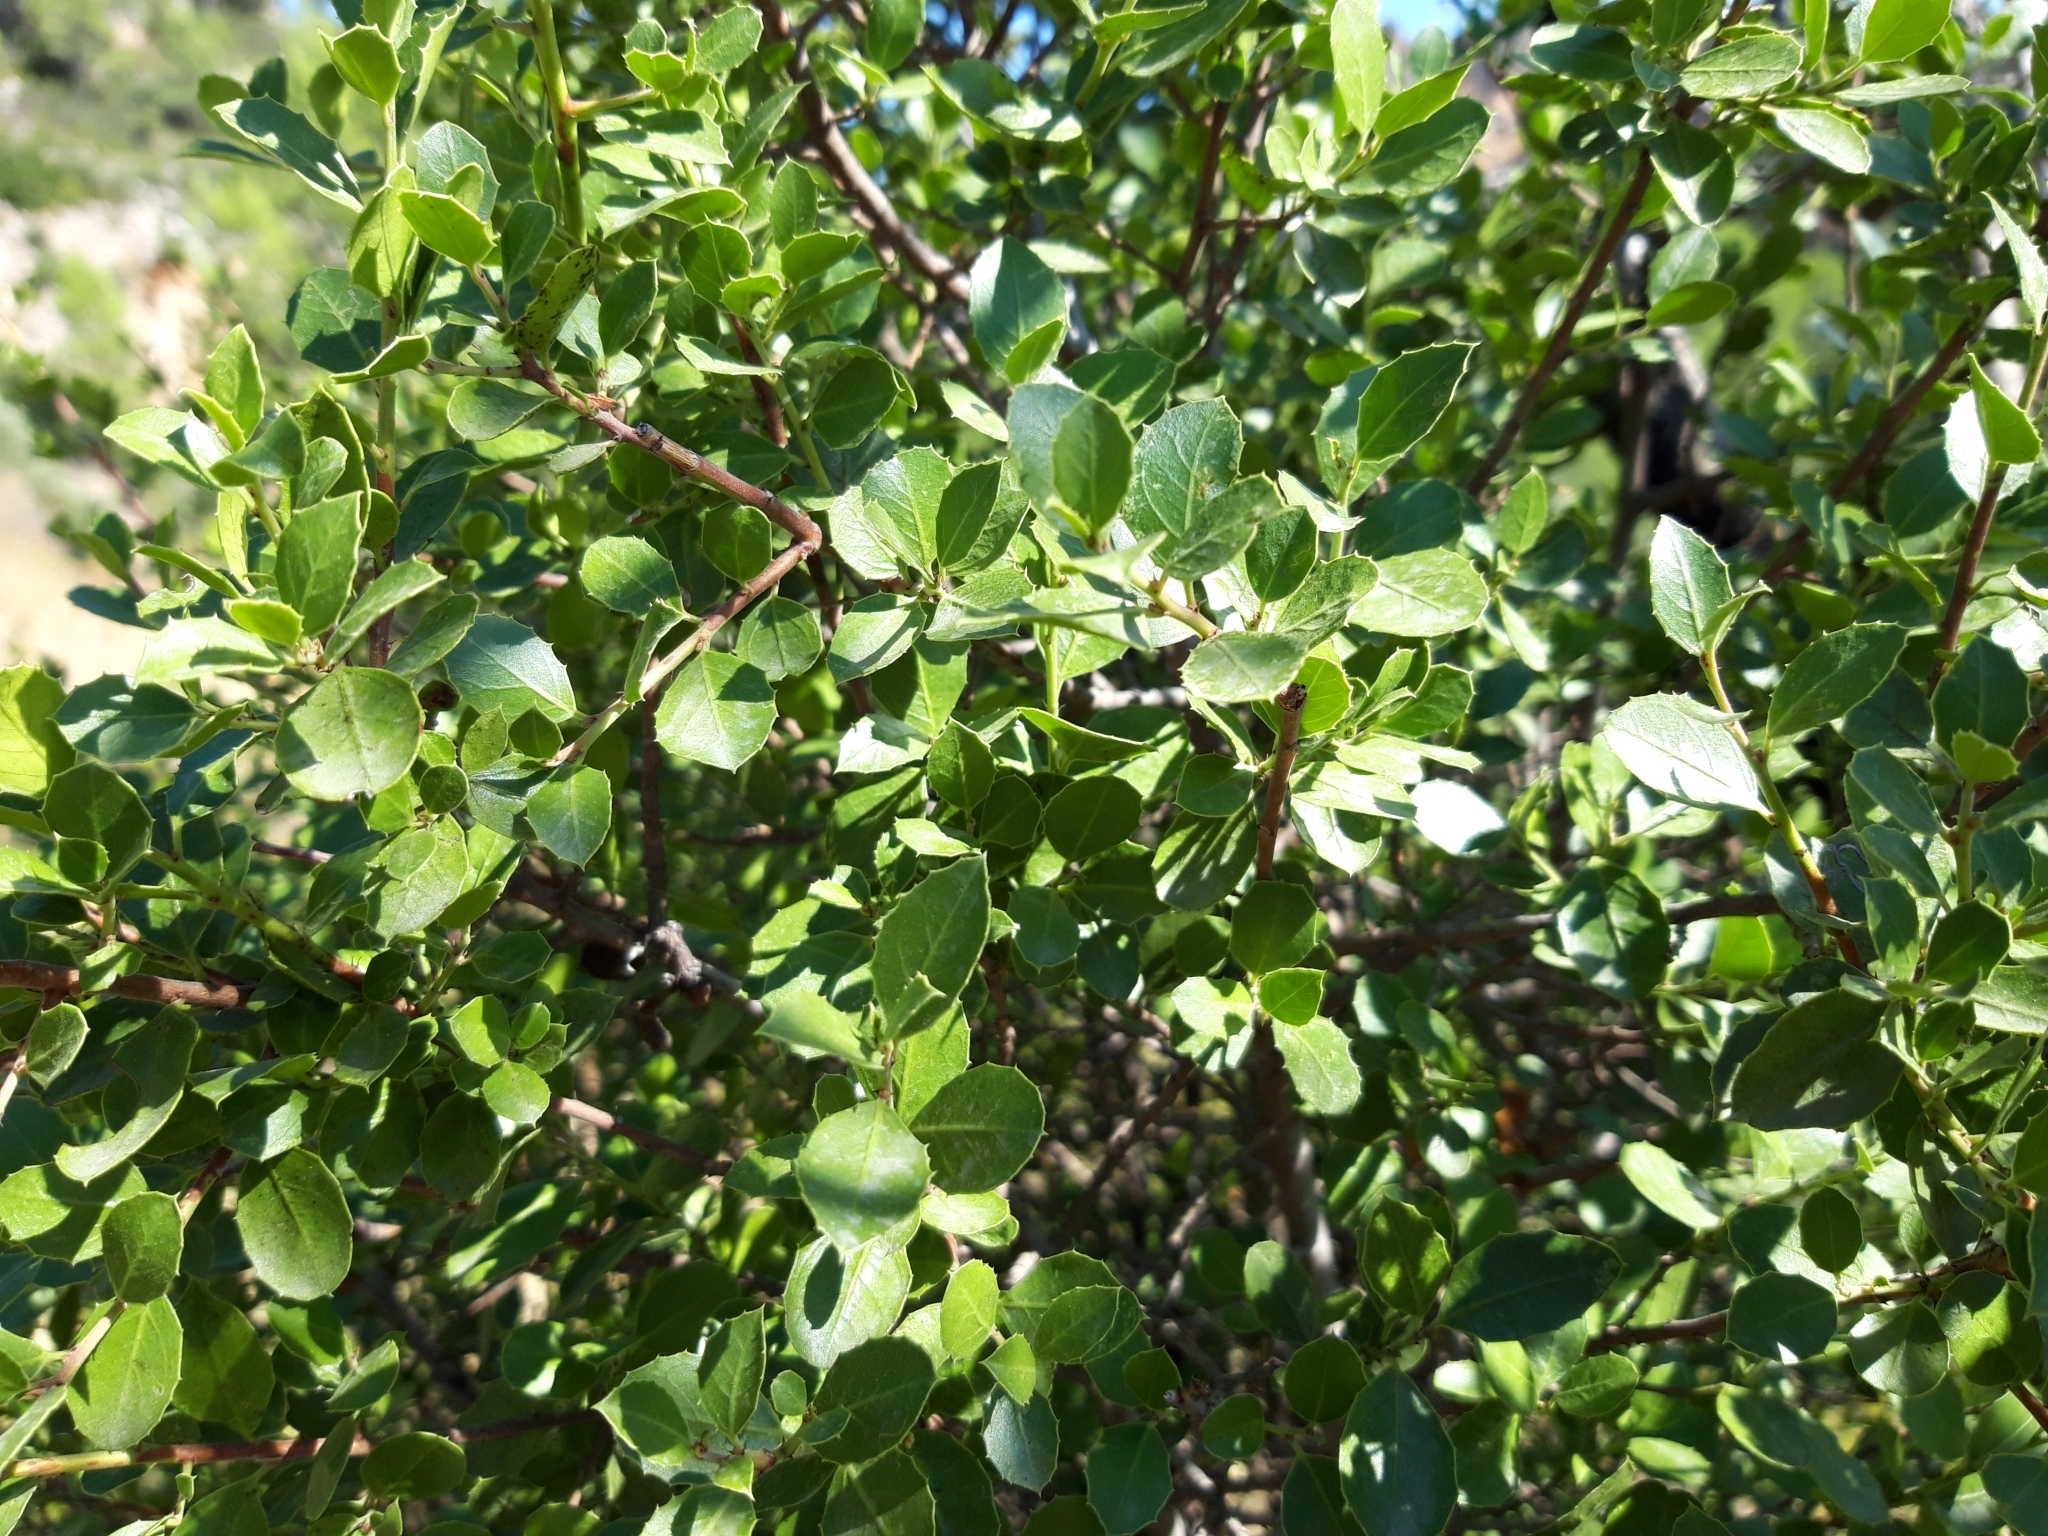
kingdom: Plantae
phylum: Tracheophyta
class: Magnoliopsida
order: Rosales
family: Rhamnaceae
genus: Rhamnus
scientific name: Rhamnus alaternus
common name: Mediterranean buckthorn
